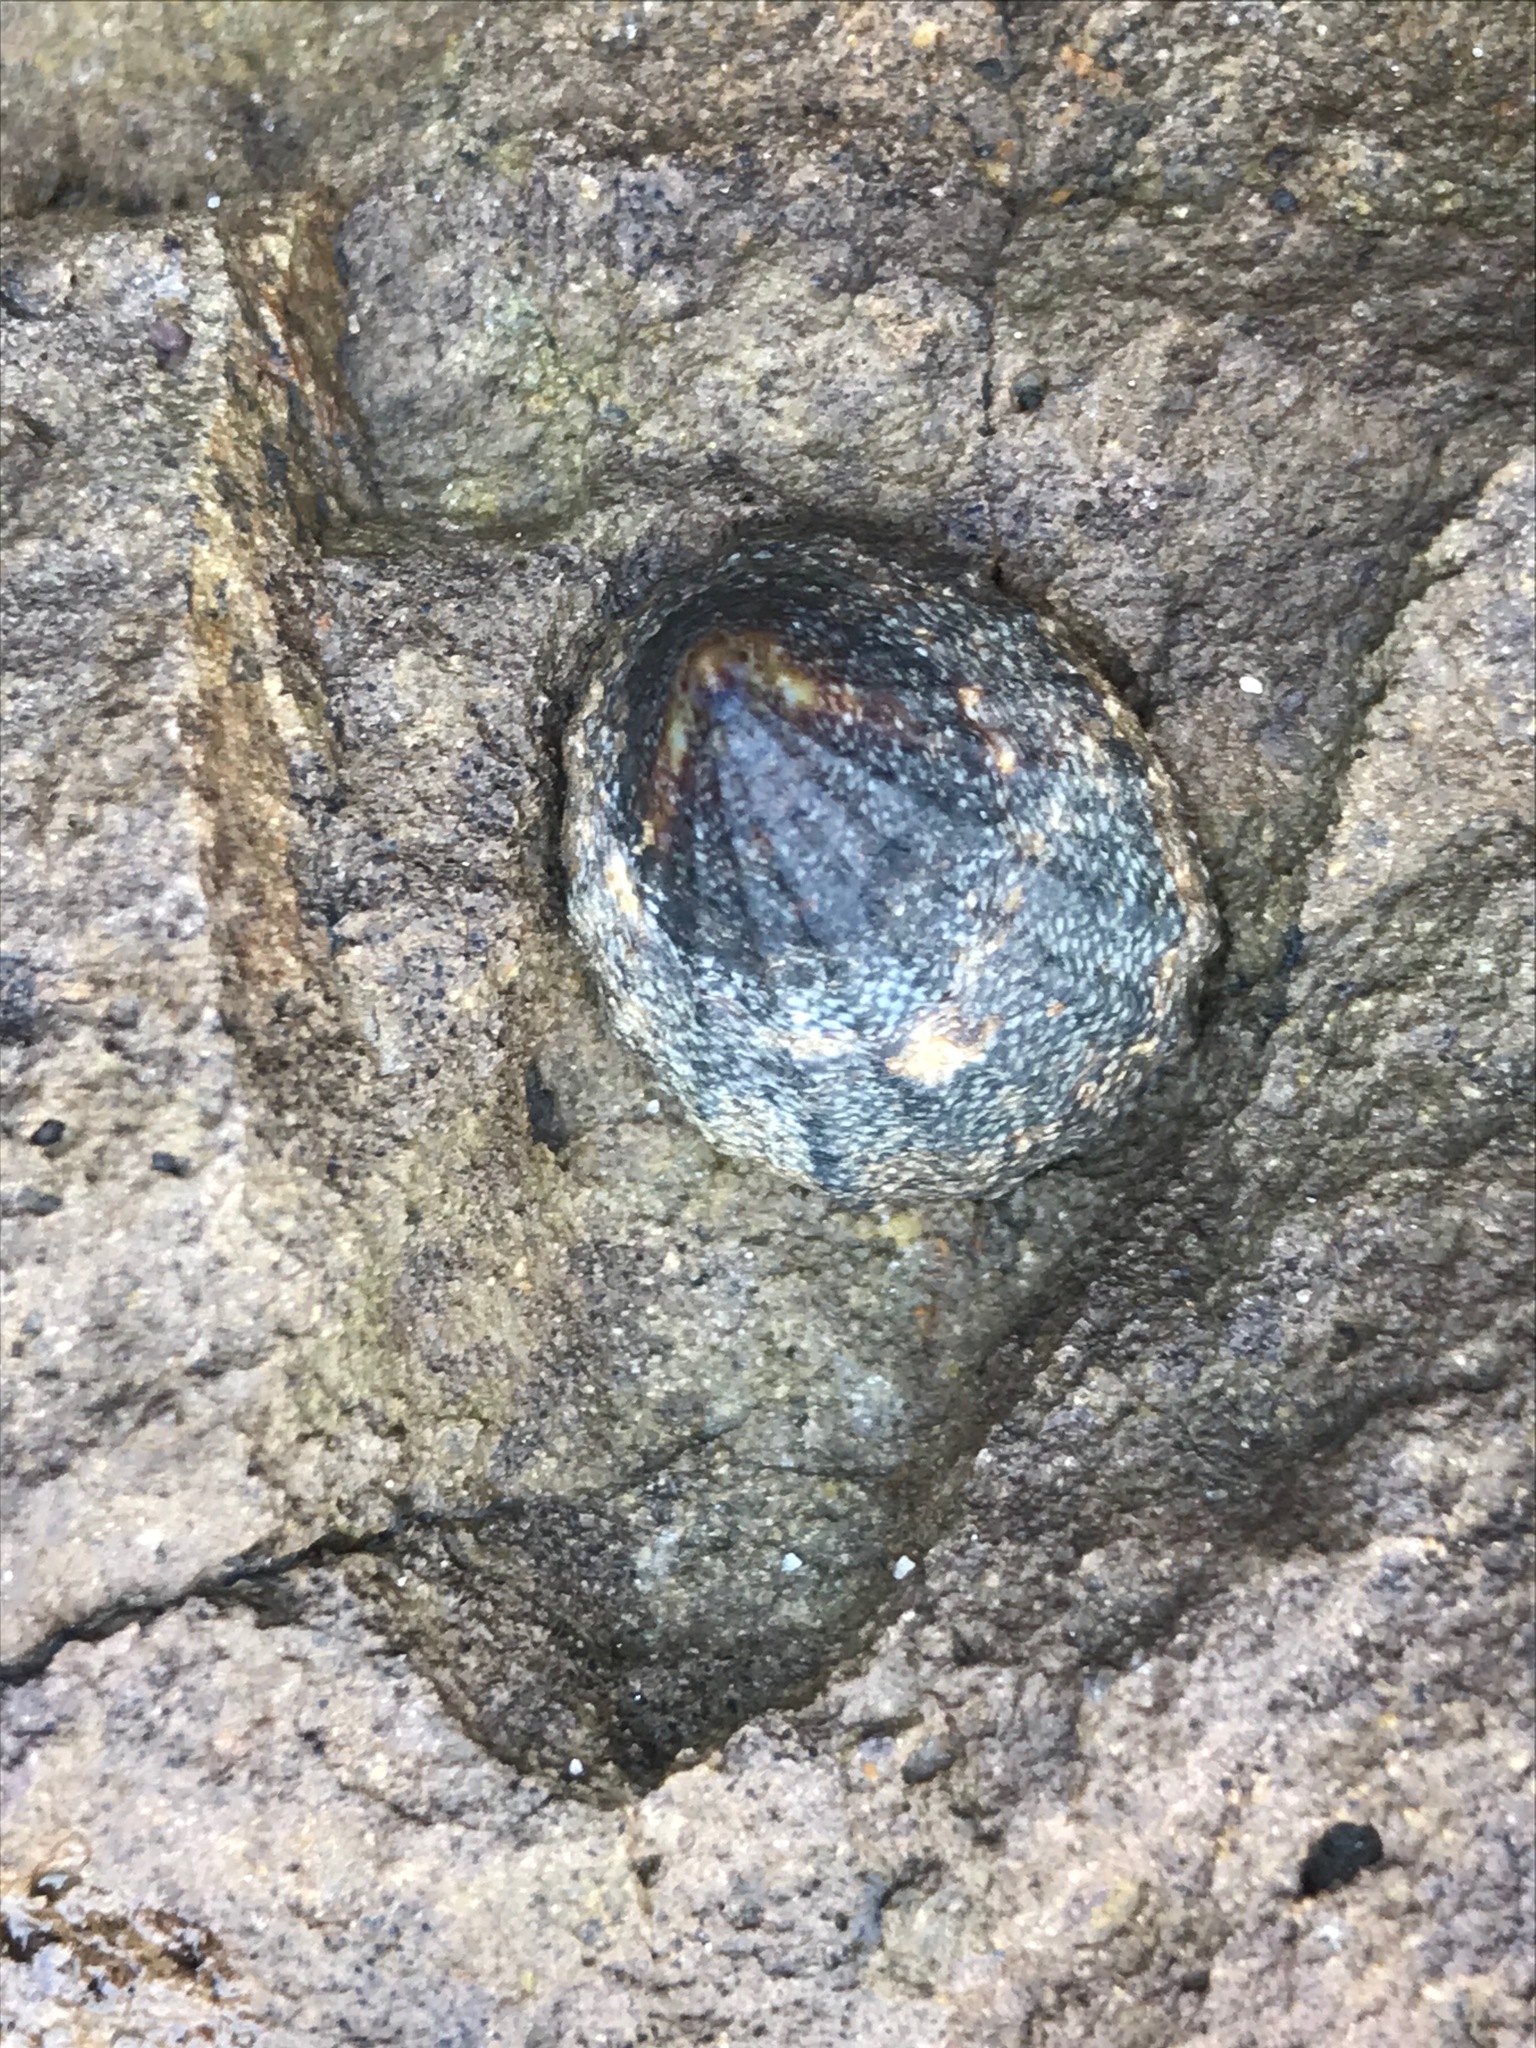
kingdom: Animalia
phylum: Mollusca
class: Gastropoda
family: Lottiidae
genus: Lottia
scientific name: Lottia austrodigitalis
